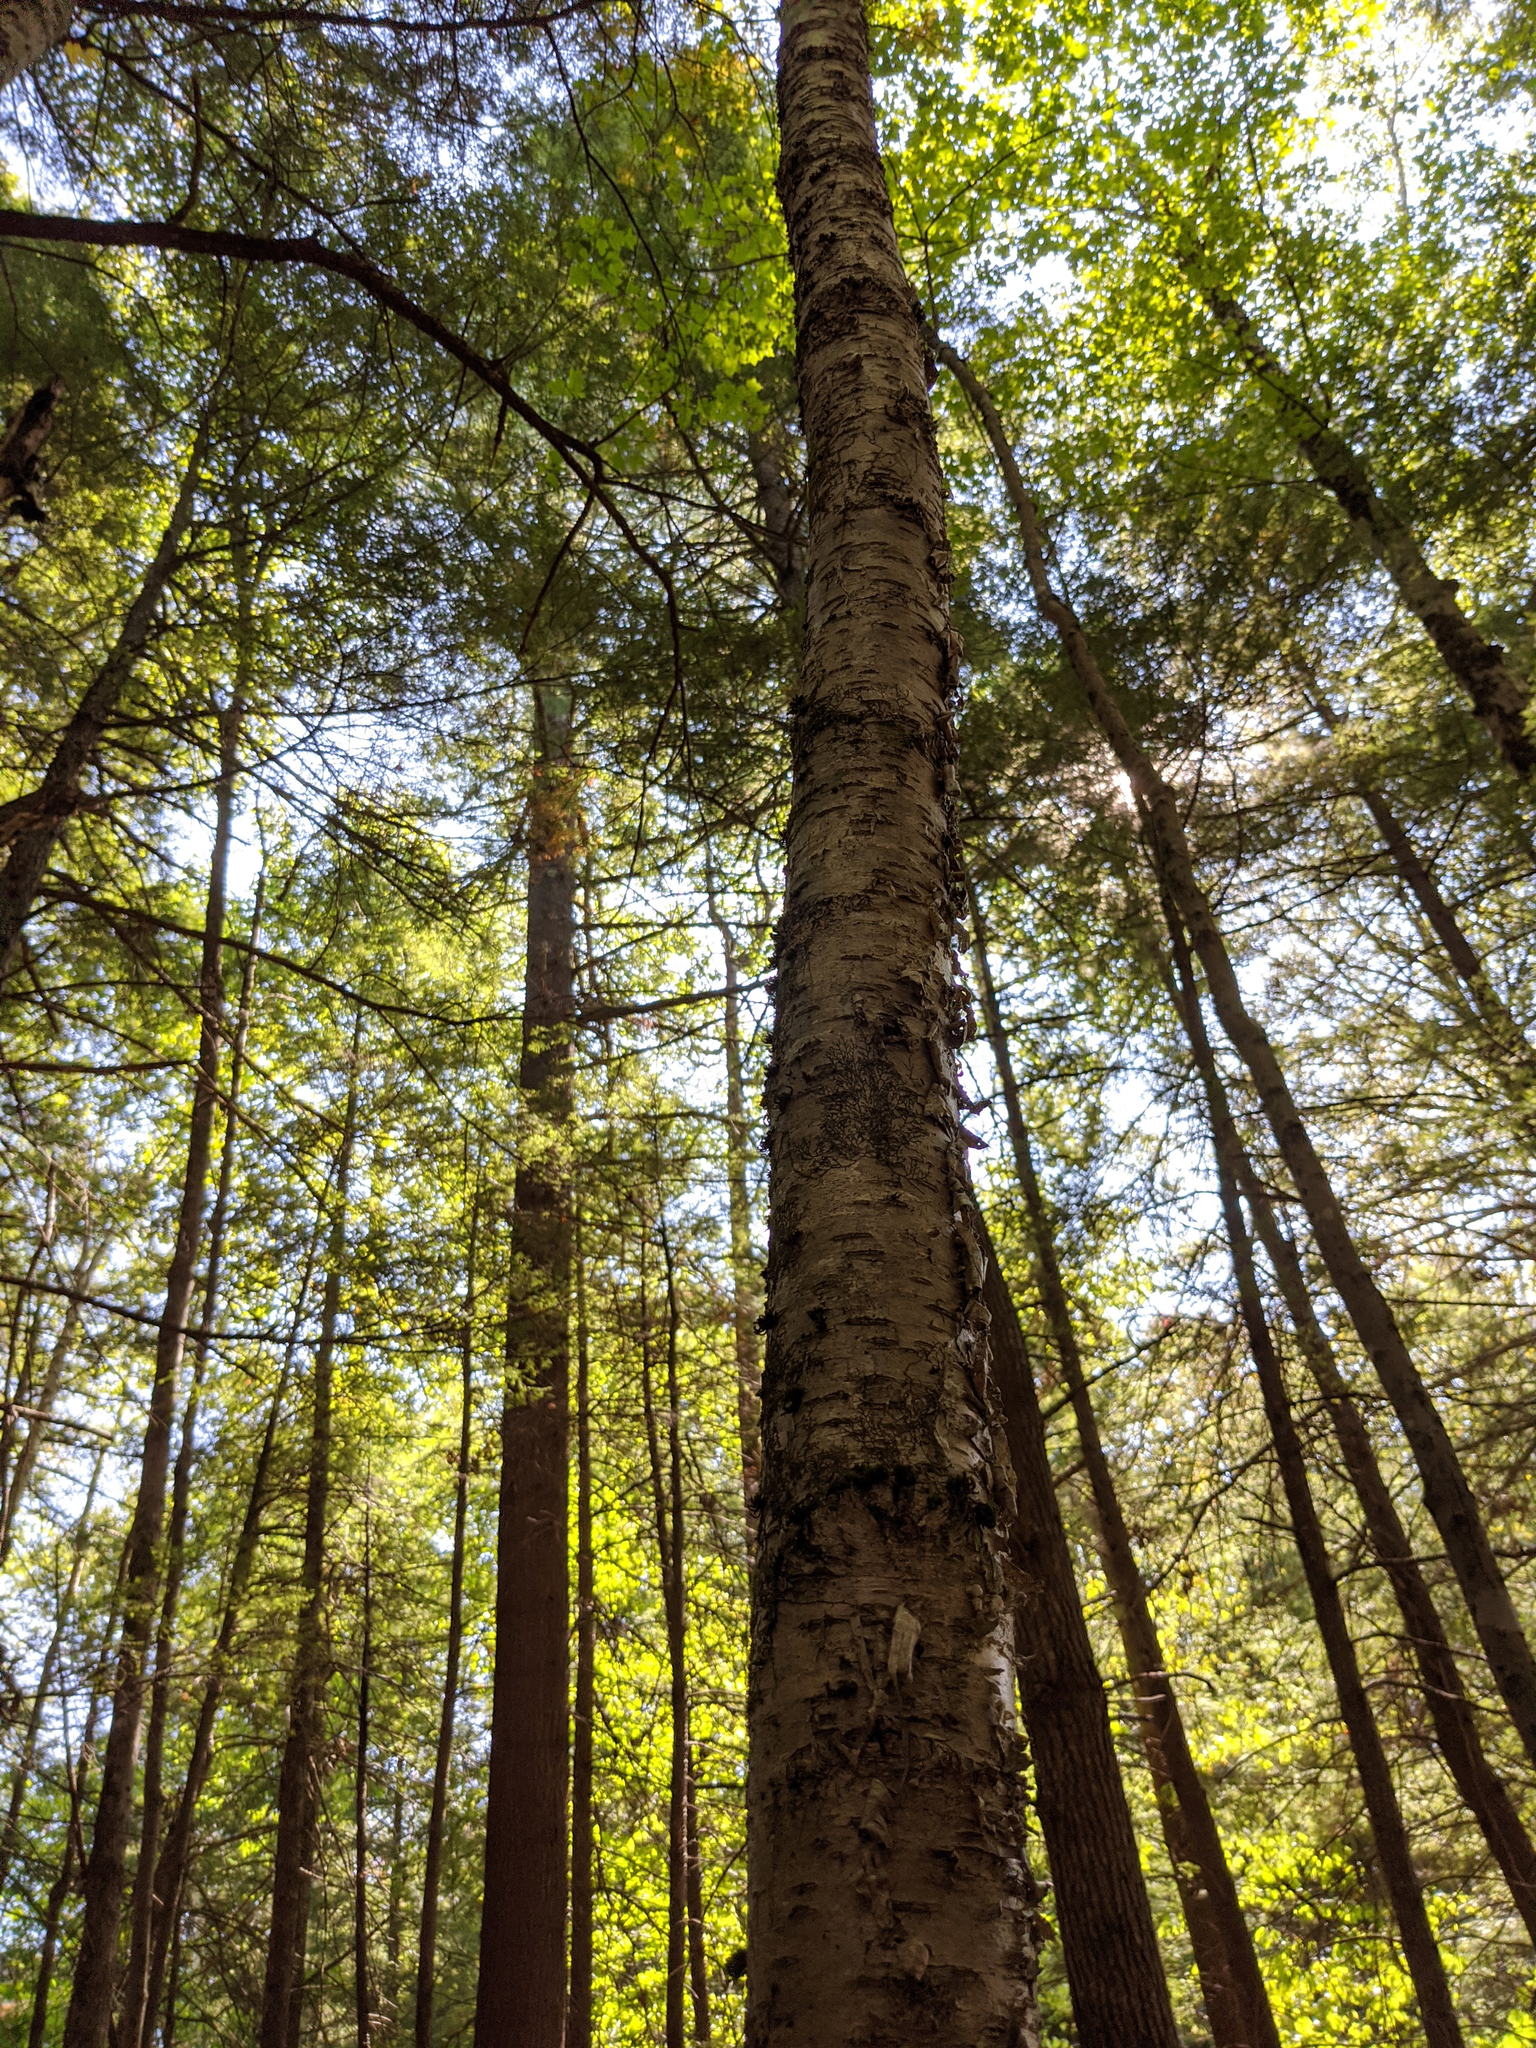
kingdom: Plantae
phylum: Tracheophyta
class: Magnoliopsida
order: Fagales
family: Betulaceae
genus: Betula
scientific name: Betula alleghaniensis
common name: Yellow birch
